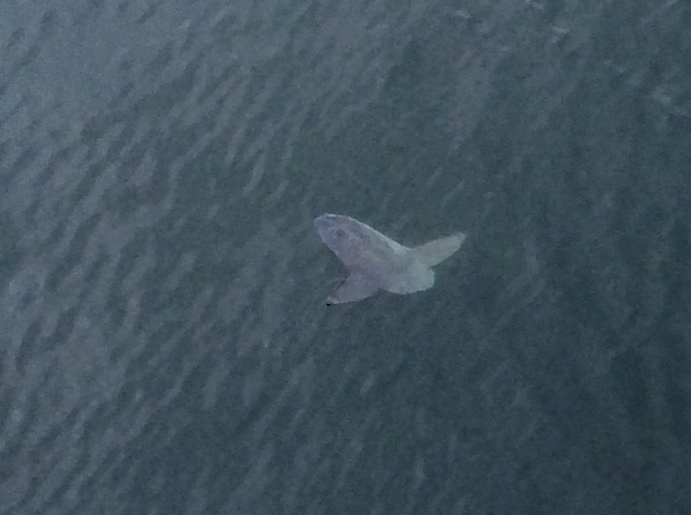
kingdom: Animalia
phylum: Chordata
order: Tetraodontiformes
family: Molidae
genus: Mola
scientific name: Mola mola
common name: Ocean sunfish
